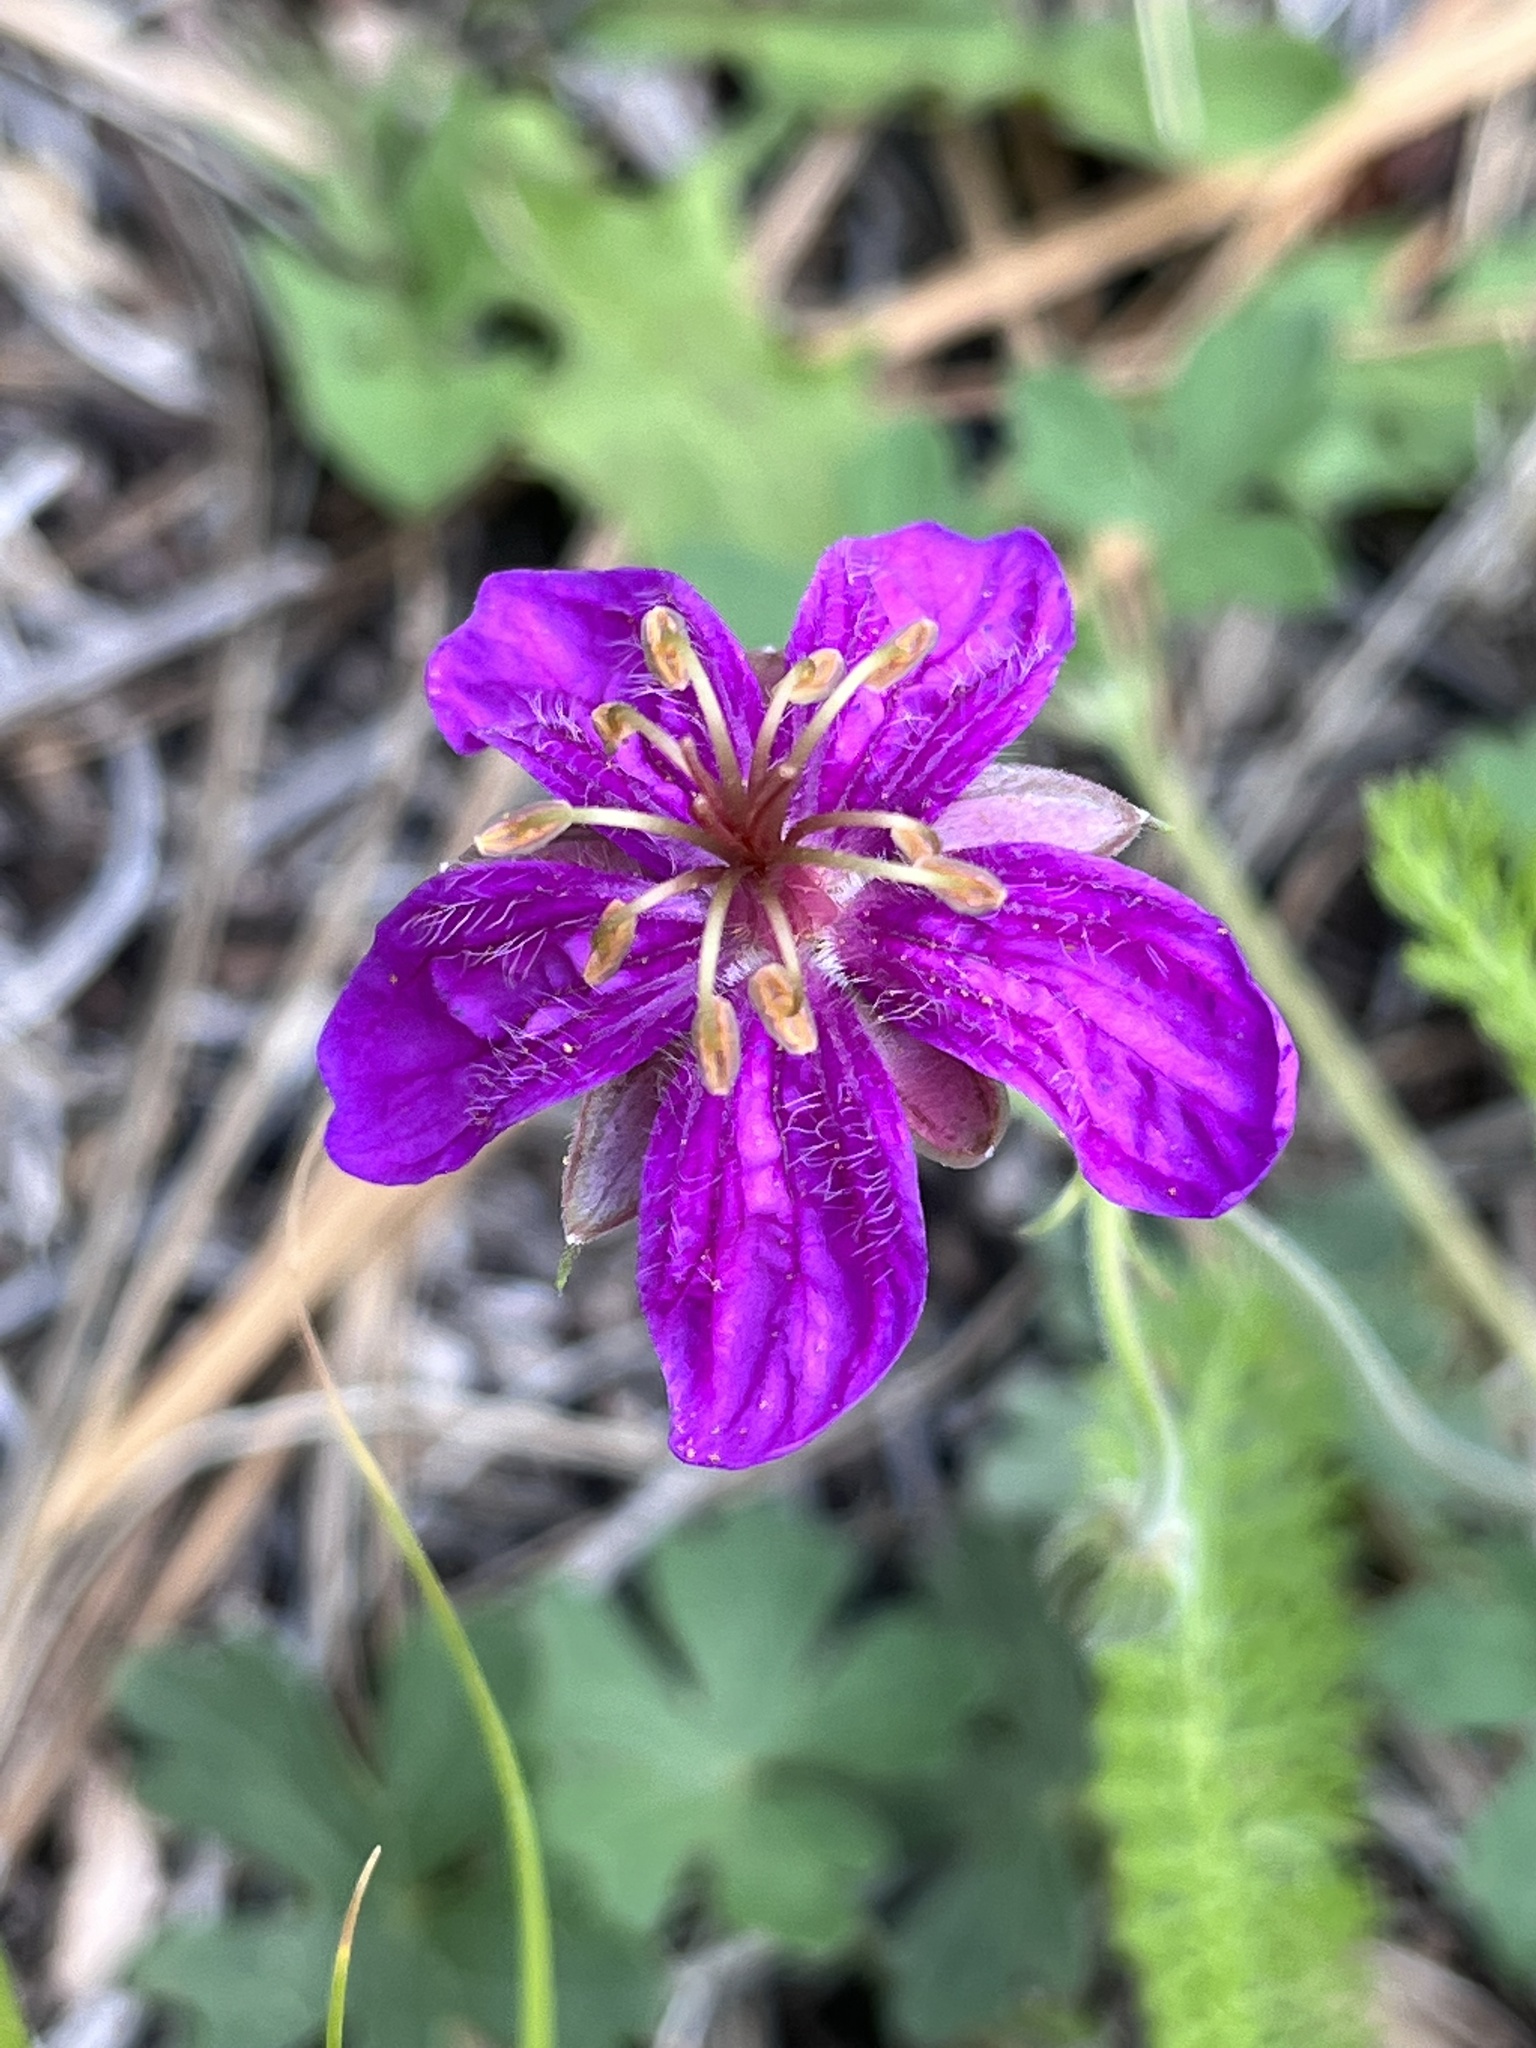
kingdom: Plantae
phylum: Tracheophyta
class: Magnoliopsida
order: Geraniales
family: Geraniaceae
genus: Geranium
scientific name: Geranium caespitosum
